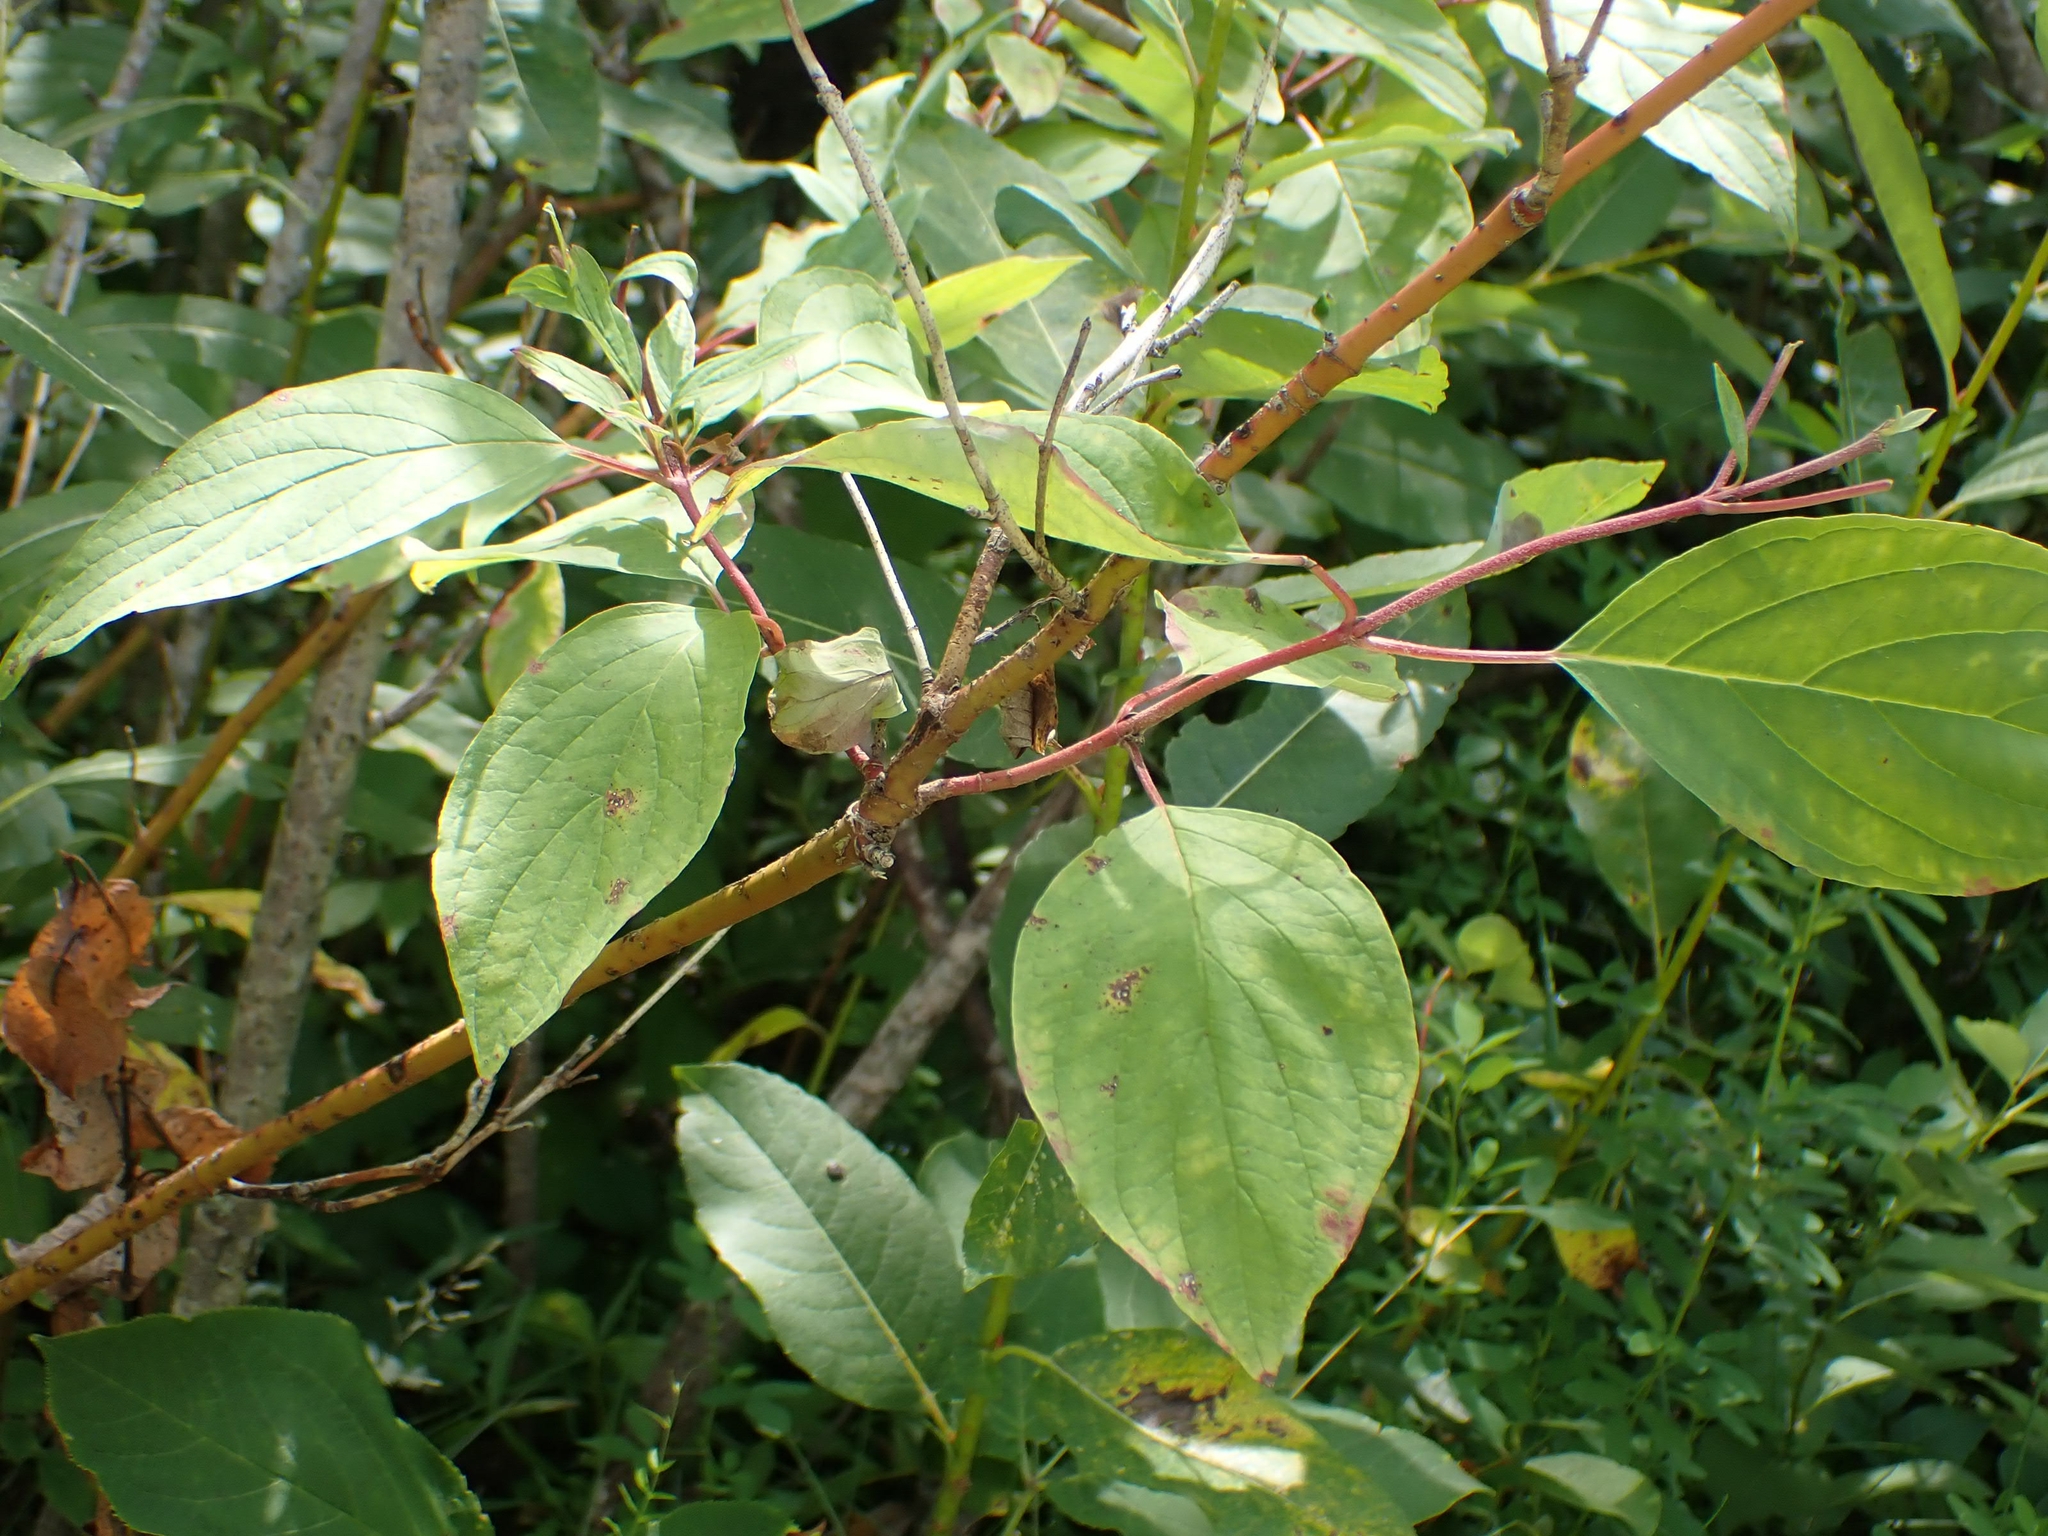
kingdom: Plantae
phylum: Tracheophyta
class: Magnoliopsida
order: Cornales
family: Cornaceae
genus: Cornus
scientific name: Cornus sericea
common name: Red-osier dogwood
